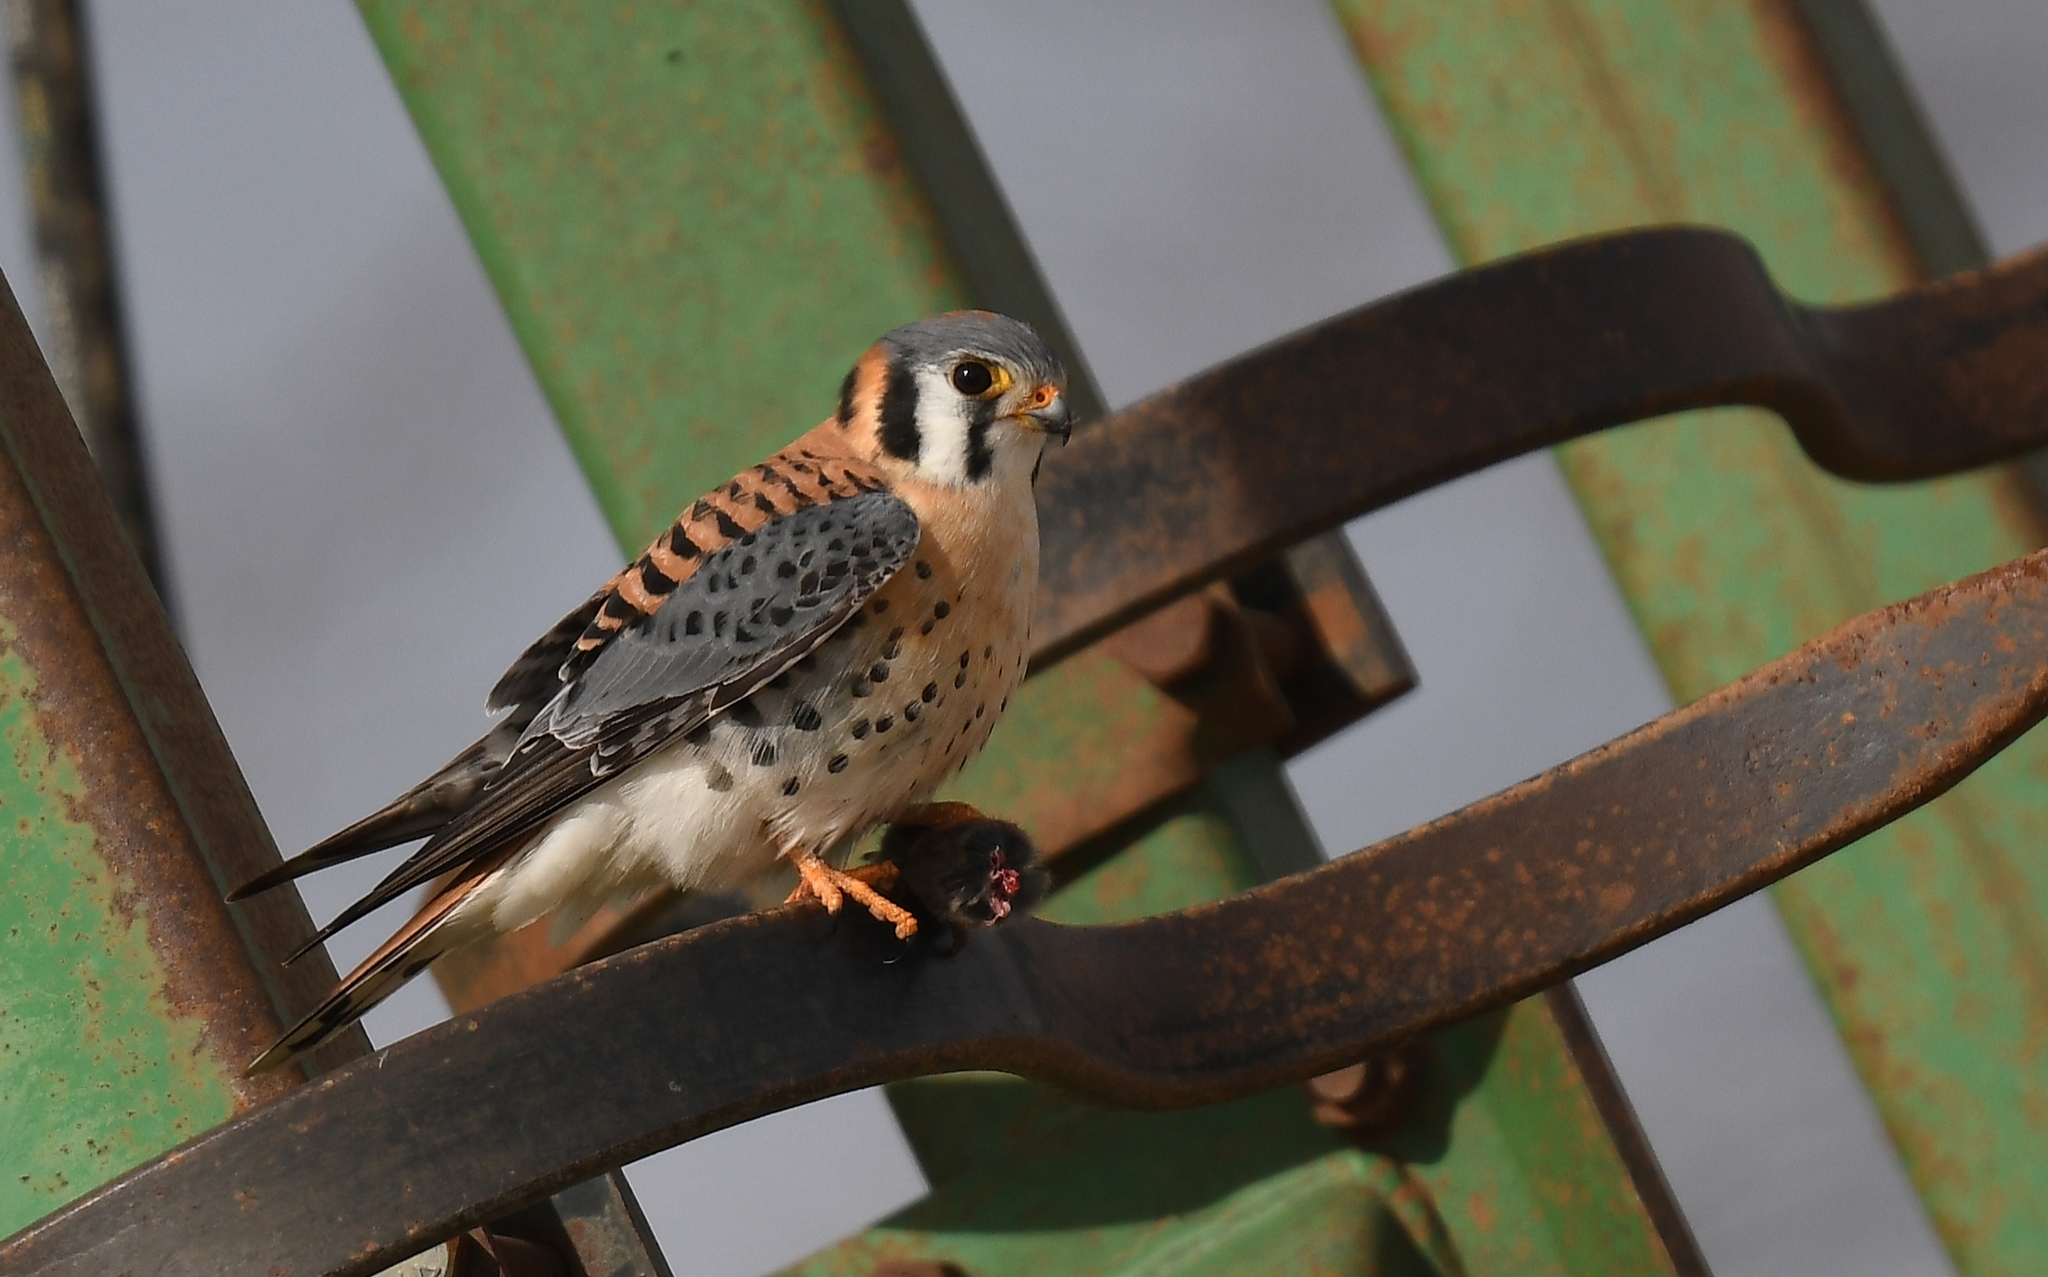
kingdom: Animalia
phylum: Chordata
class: Aves
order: Falconiformes
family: Falconidae
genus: Falco
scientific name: Falco sparverius
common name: American kestrel
